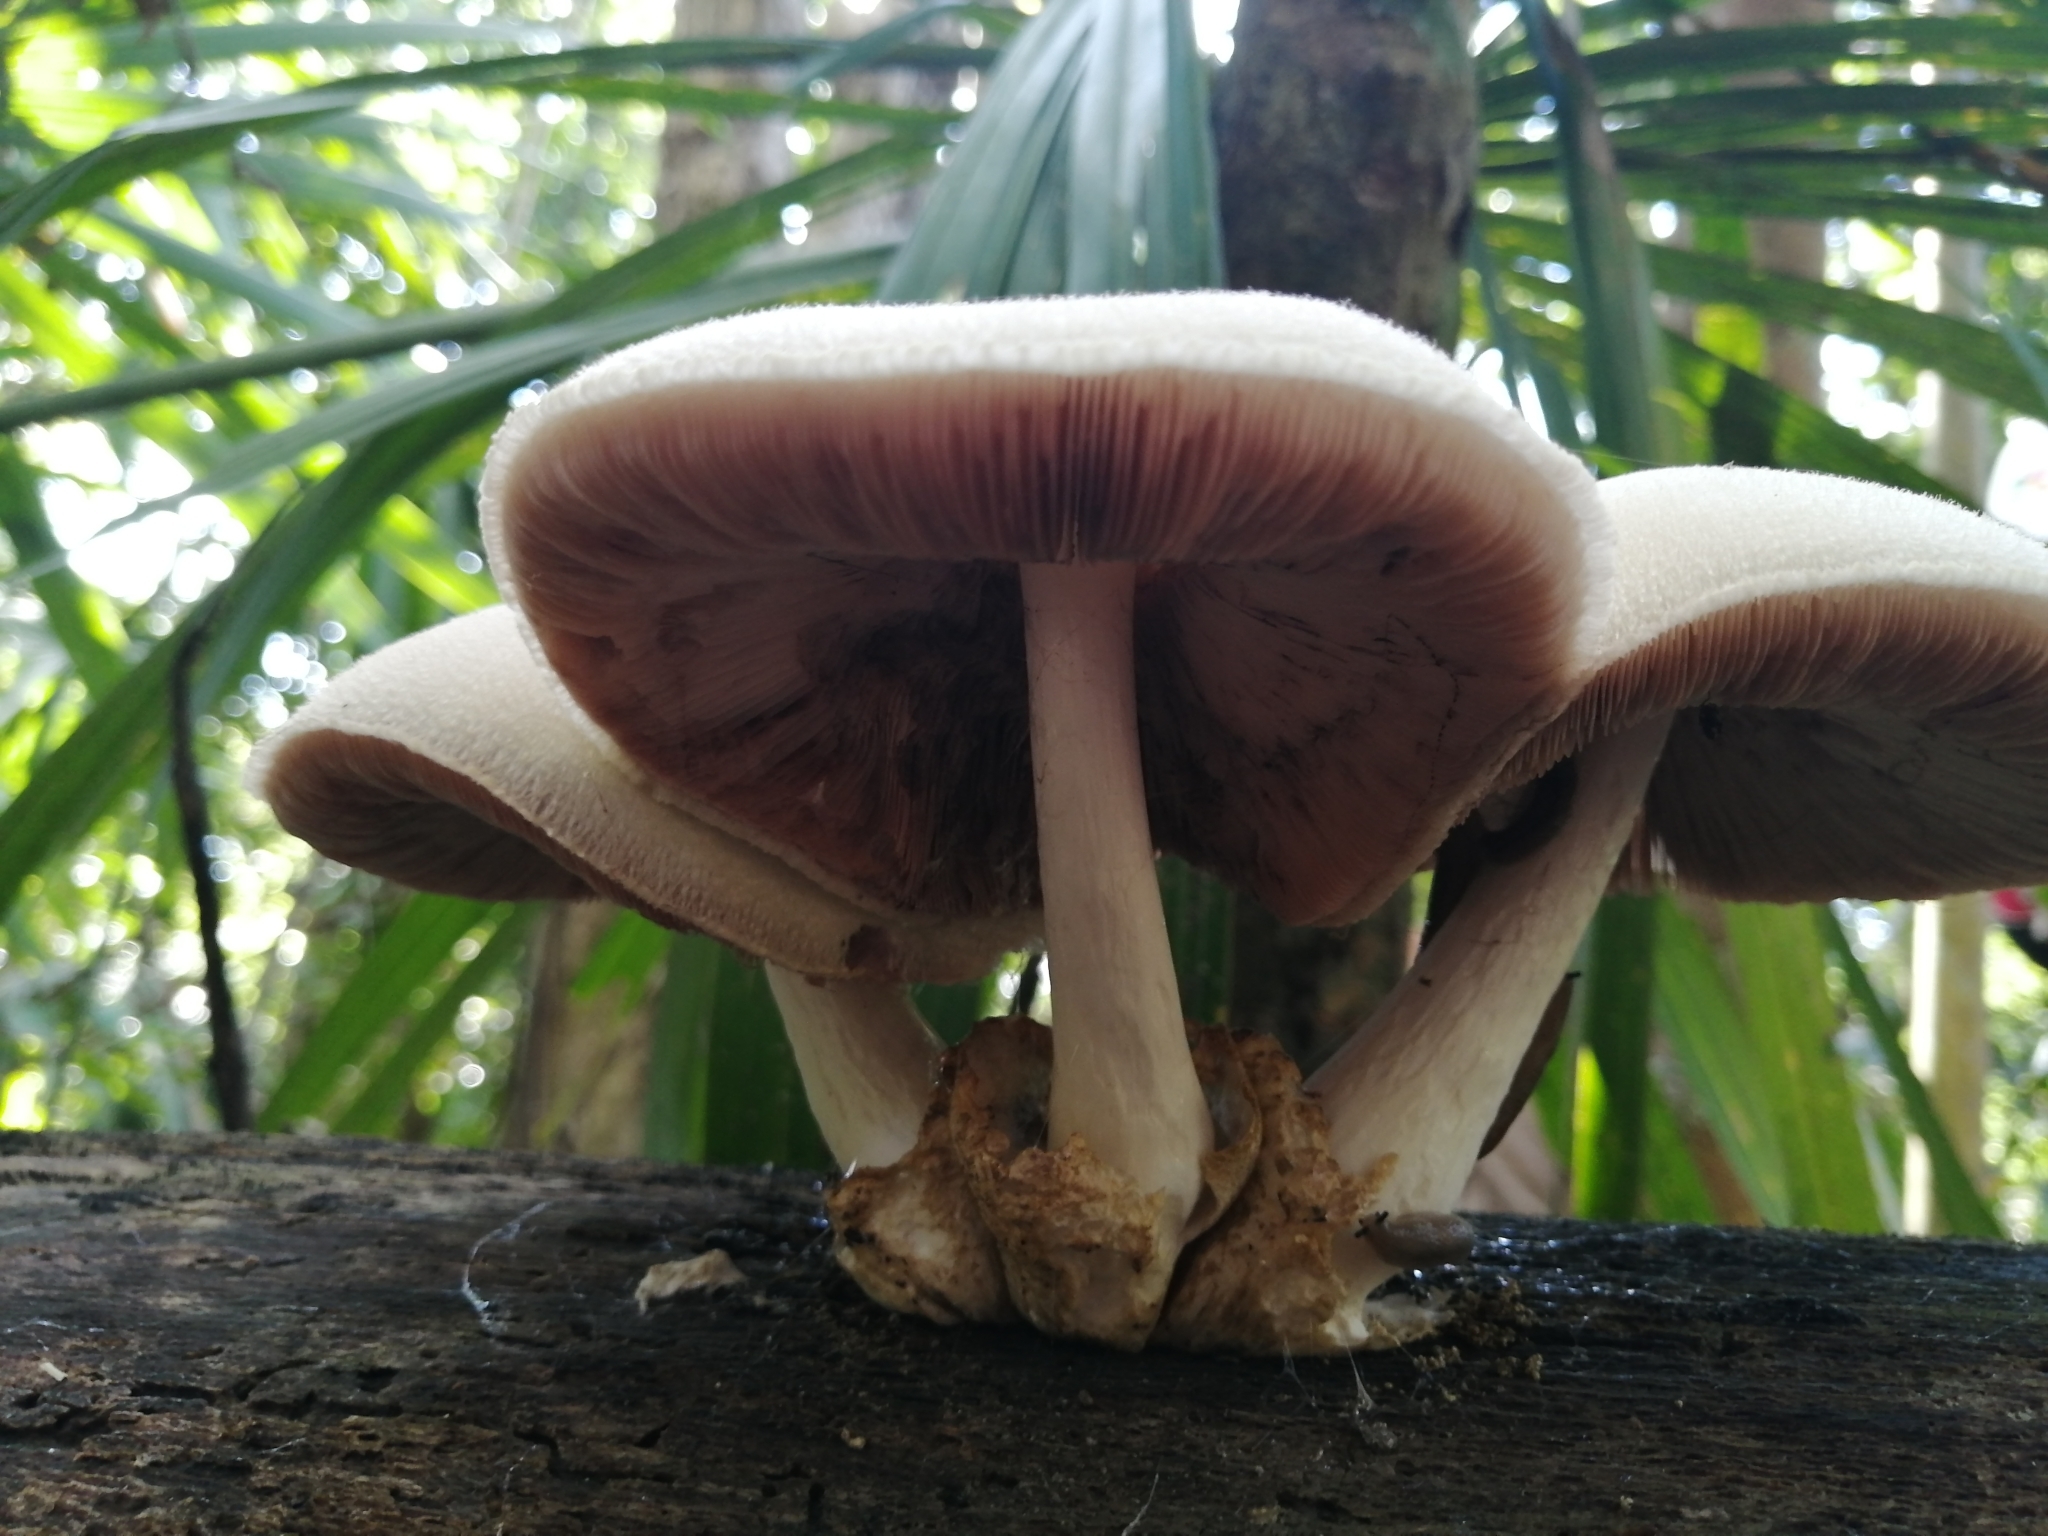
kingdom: Fungi
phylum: Basidiomycota
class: Agaricomycetes
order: Agaricales
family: Pluteaceae
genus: Volvariella
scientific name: Volvariella bombycina
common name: Silky rosegill
